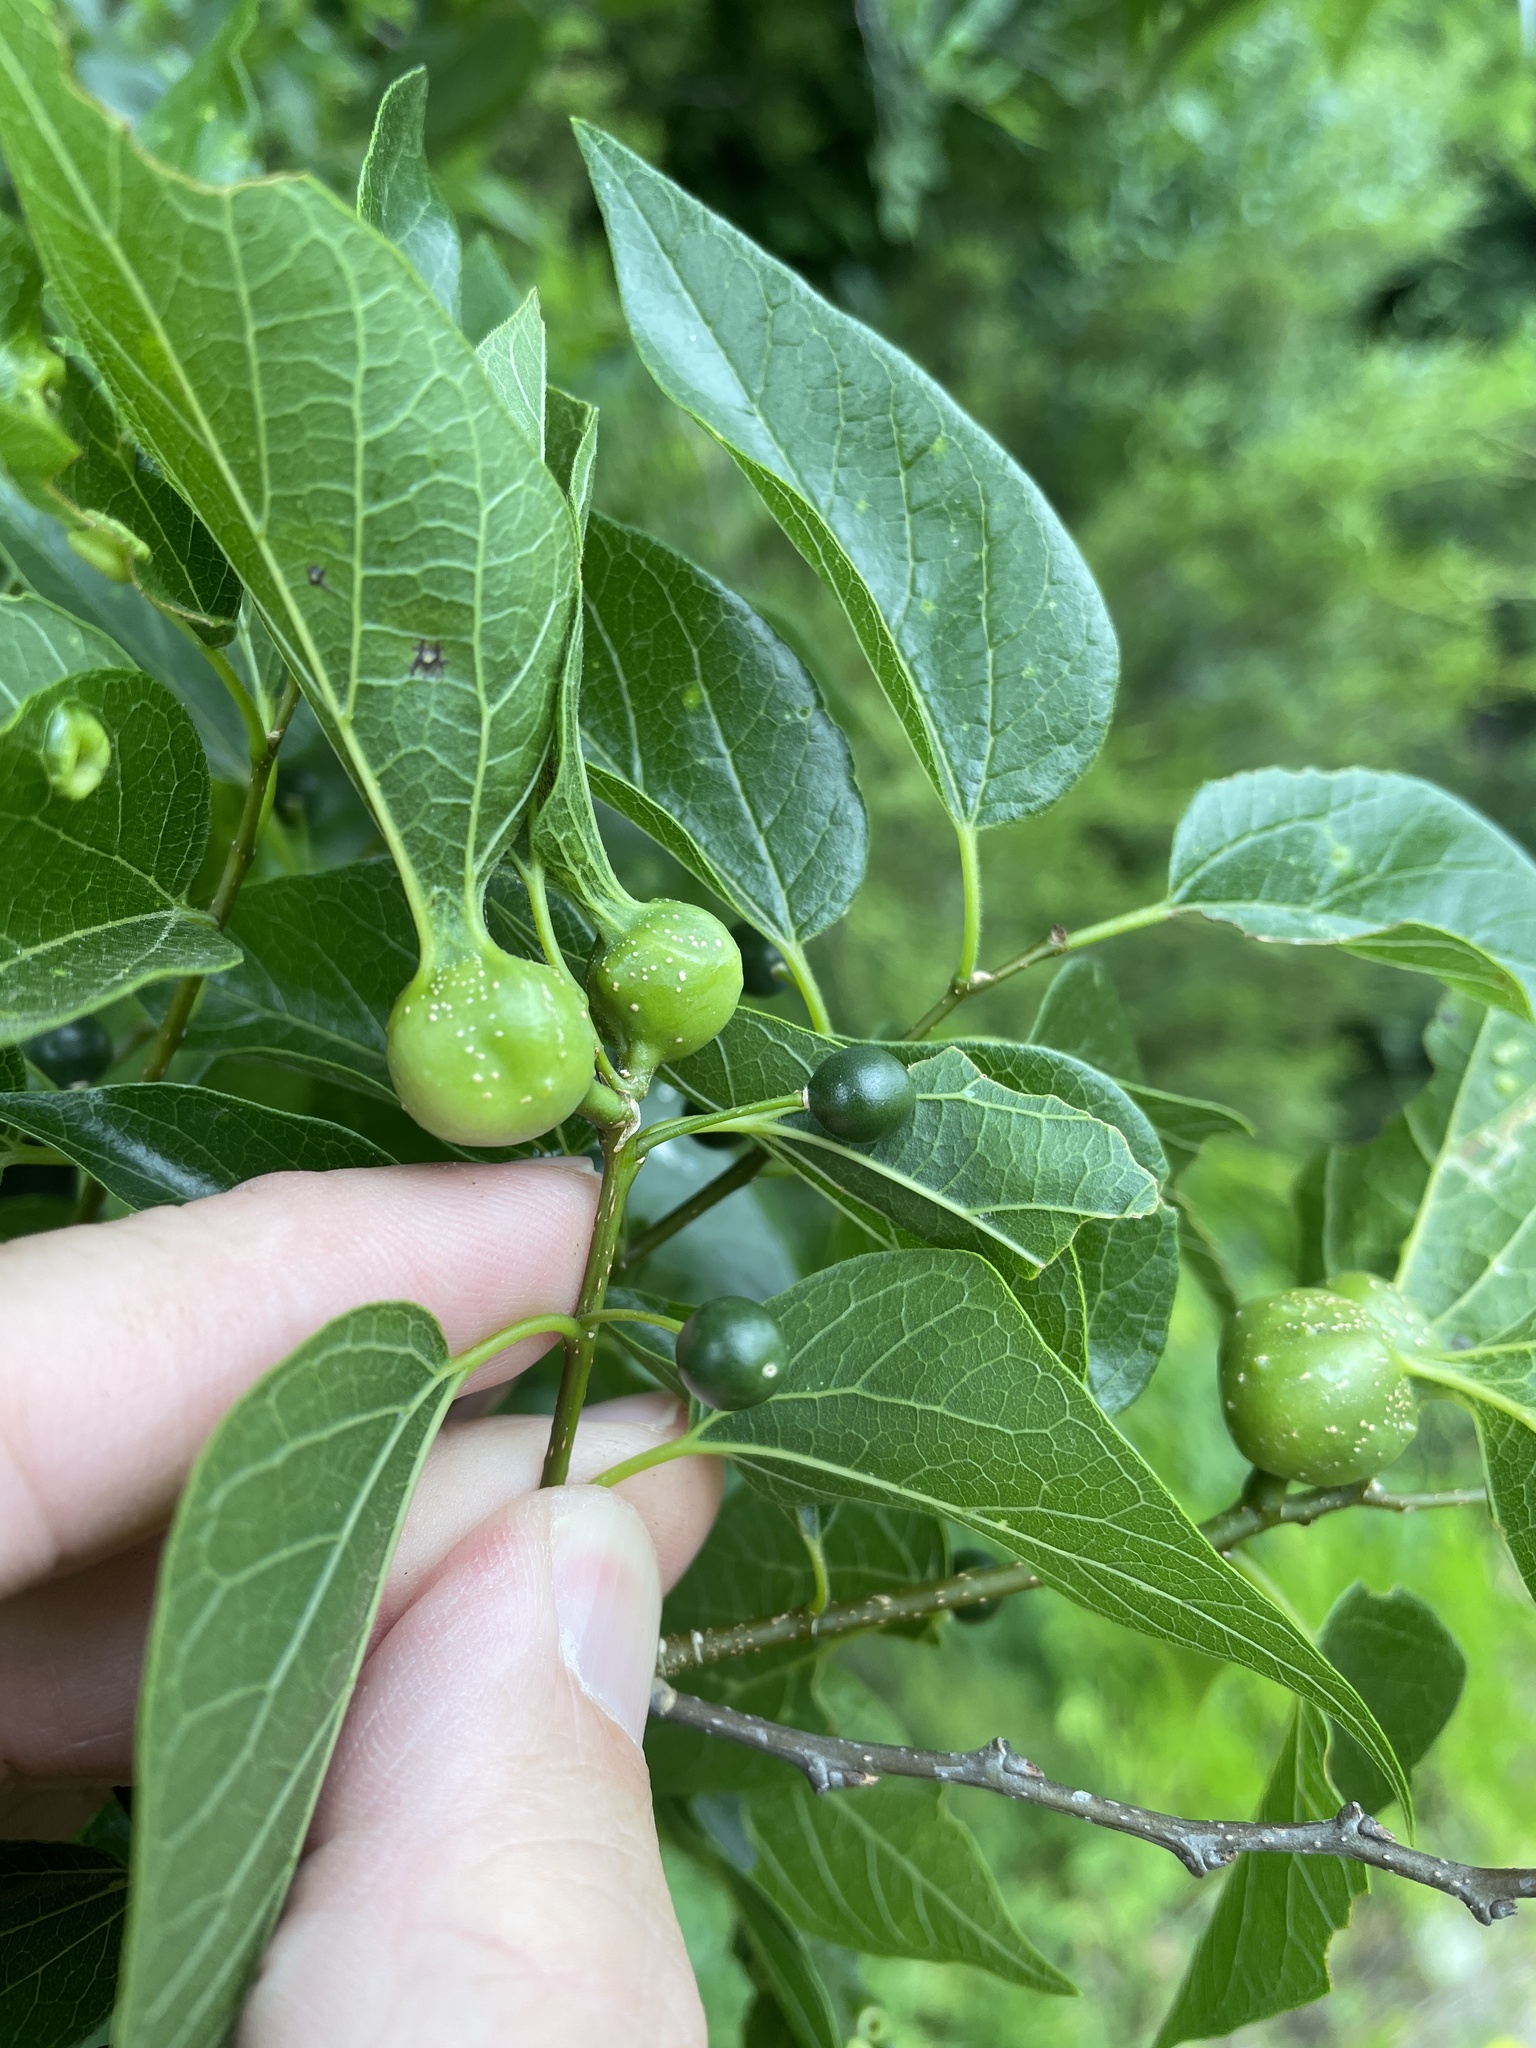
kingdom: Plantae
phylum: Tracheophyta
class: Magnoliopsida
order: Rosales
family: Cannabaceae
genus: Celtis
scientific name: Celtis laevigata
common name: Sugarberry
